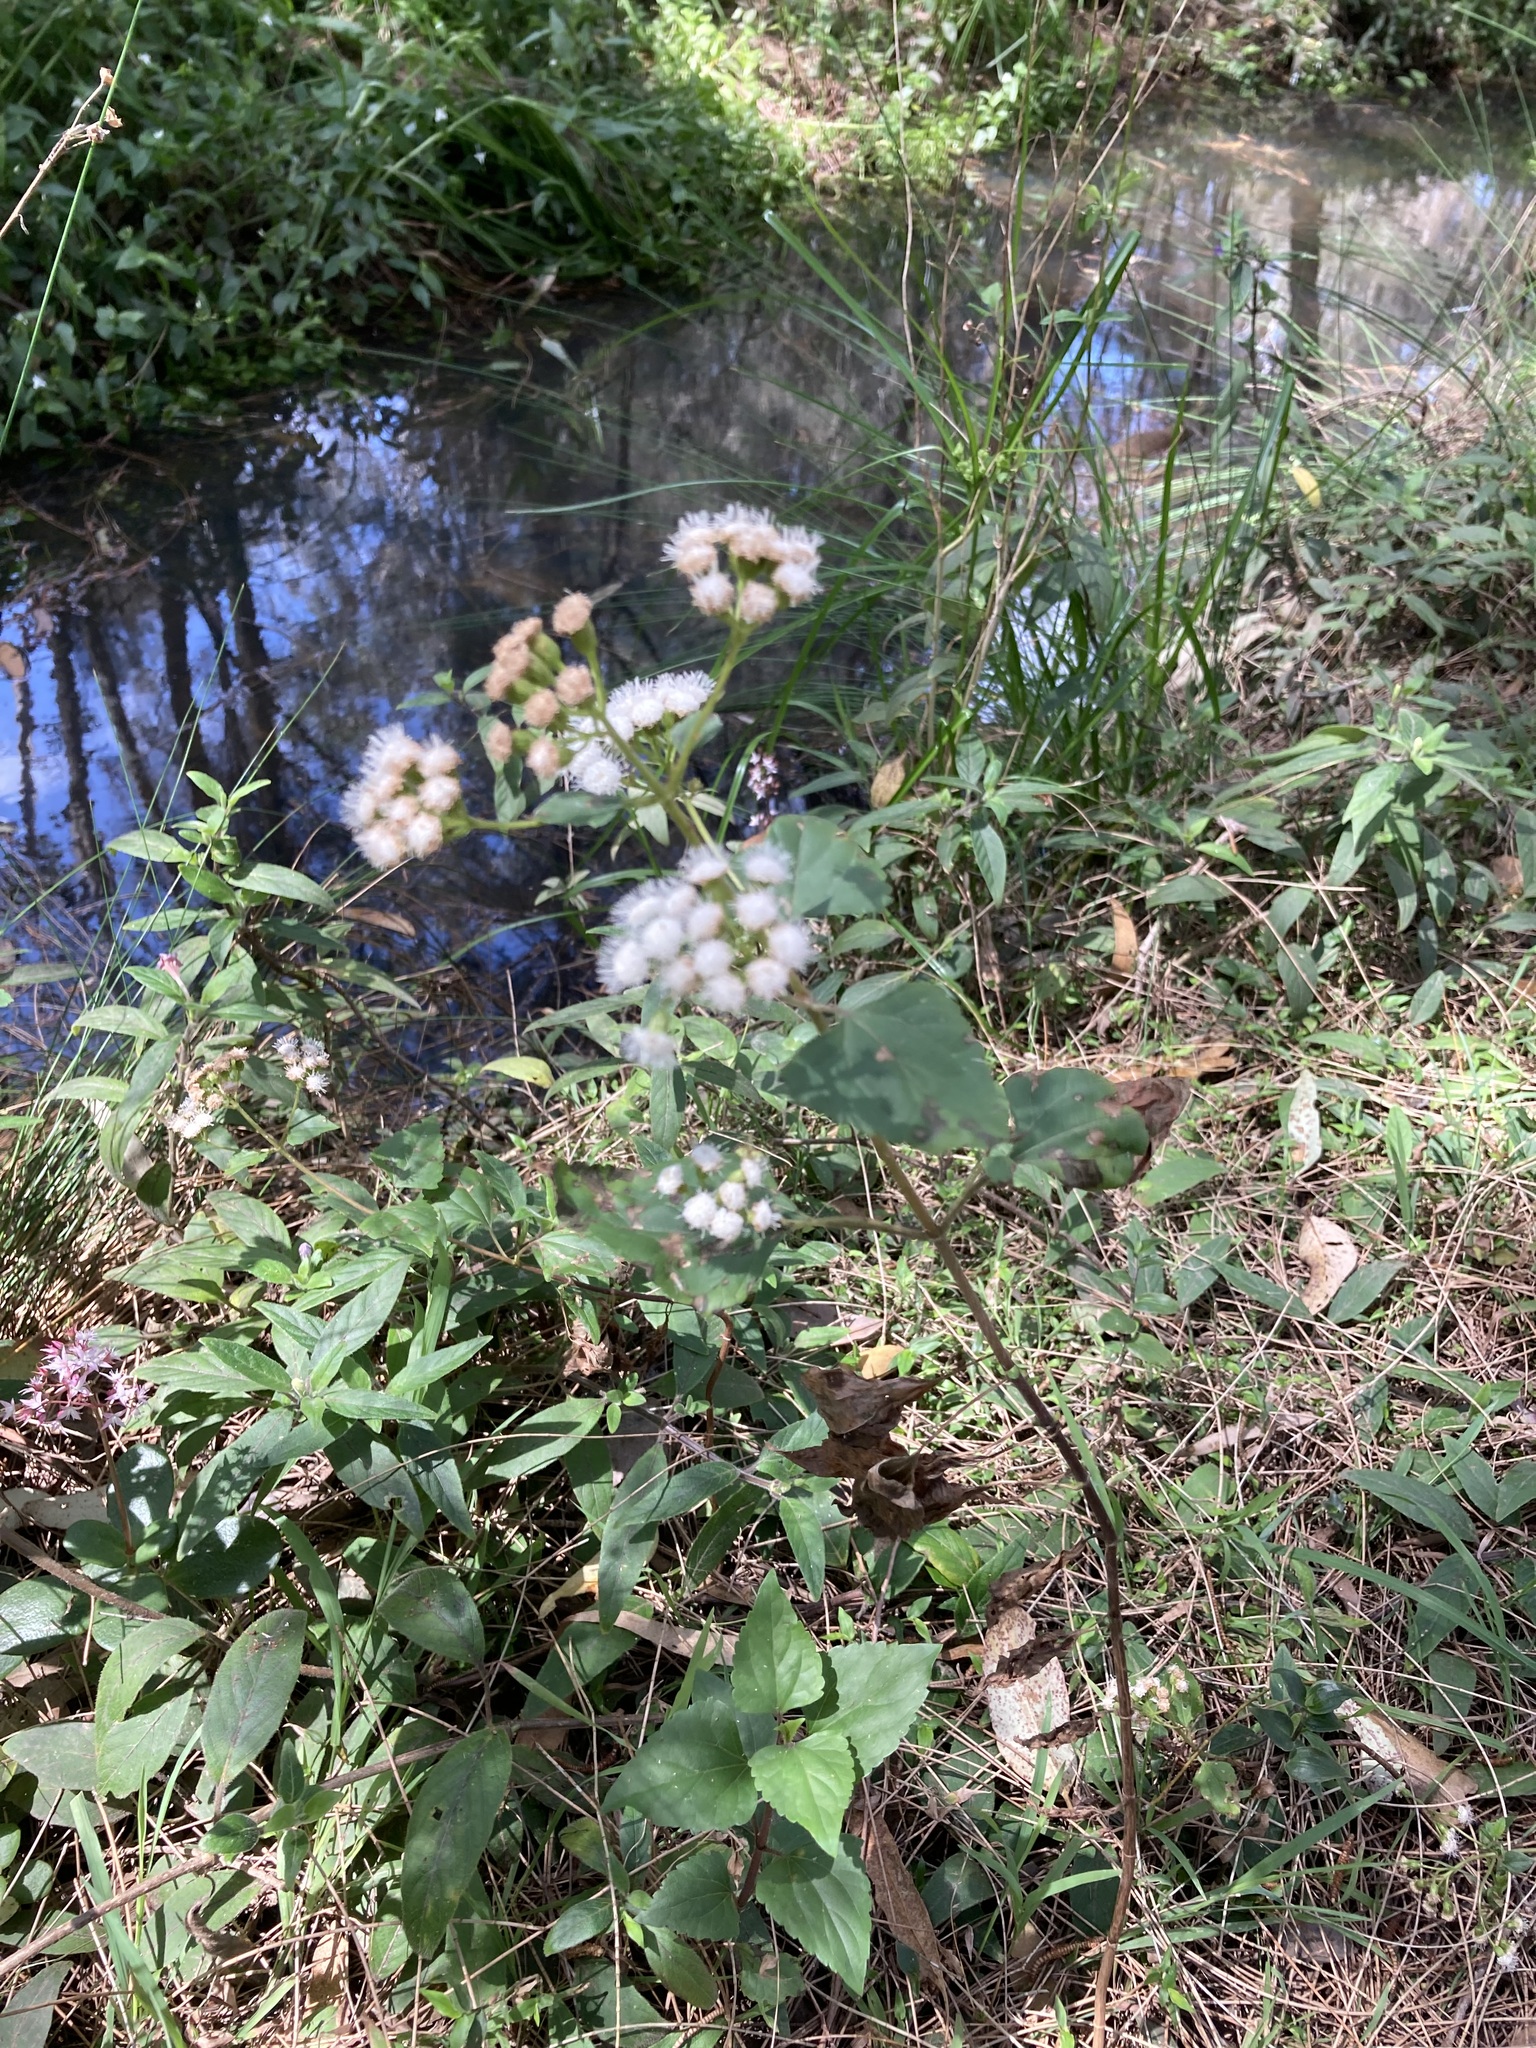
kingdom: Plantae
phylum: Tracheophyta
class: Magnoliopsida
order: Asterales
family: Asteraceae
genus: Ageratina
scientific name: Ageratina adenophora
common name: Sticky snakeroot
